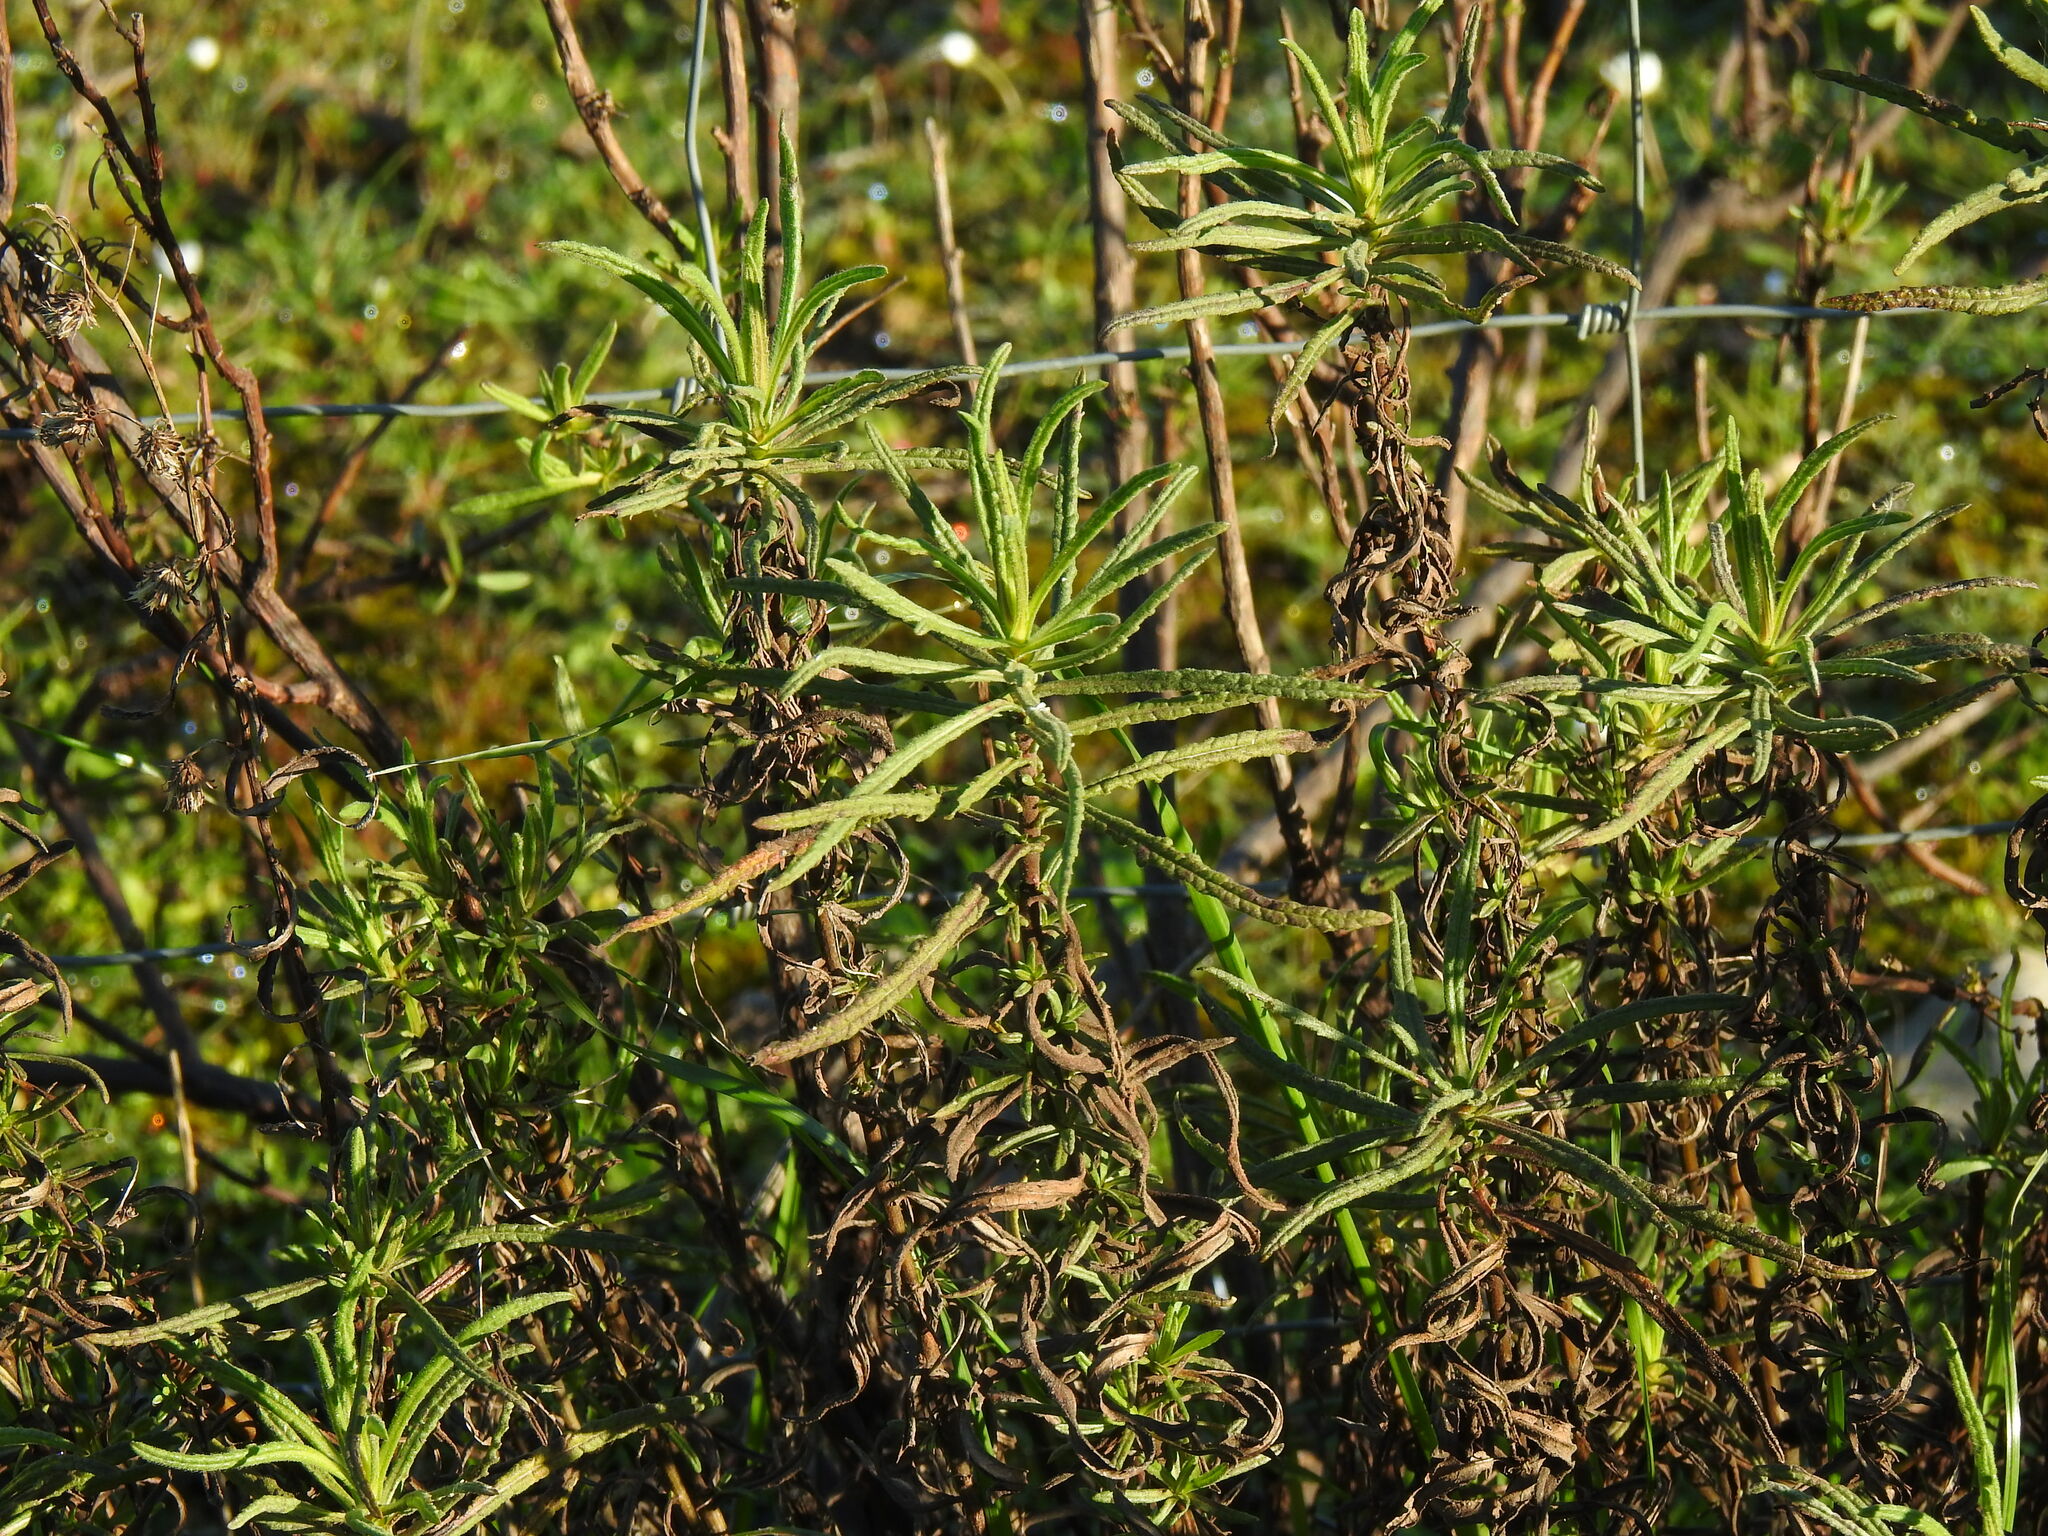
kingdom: Plantae
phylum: Tracheophyta
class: Magnoliopsida
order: Asterales
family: Asteraceae
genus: Dittrichia
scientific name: Dittrichia viscosa
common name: Woody fleabane
